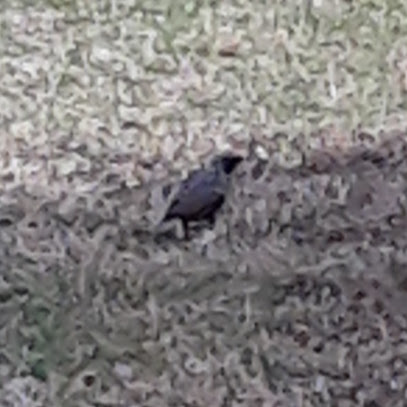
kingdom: Animalia
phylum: Chordata
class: Aves
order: Passeriformes
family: Sturnidae
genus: Sturnus
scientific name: Sturnus vulgaris
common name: Common starling
